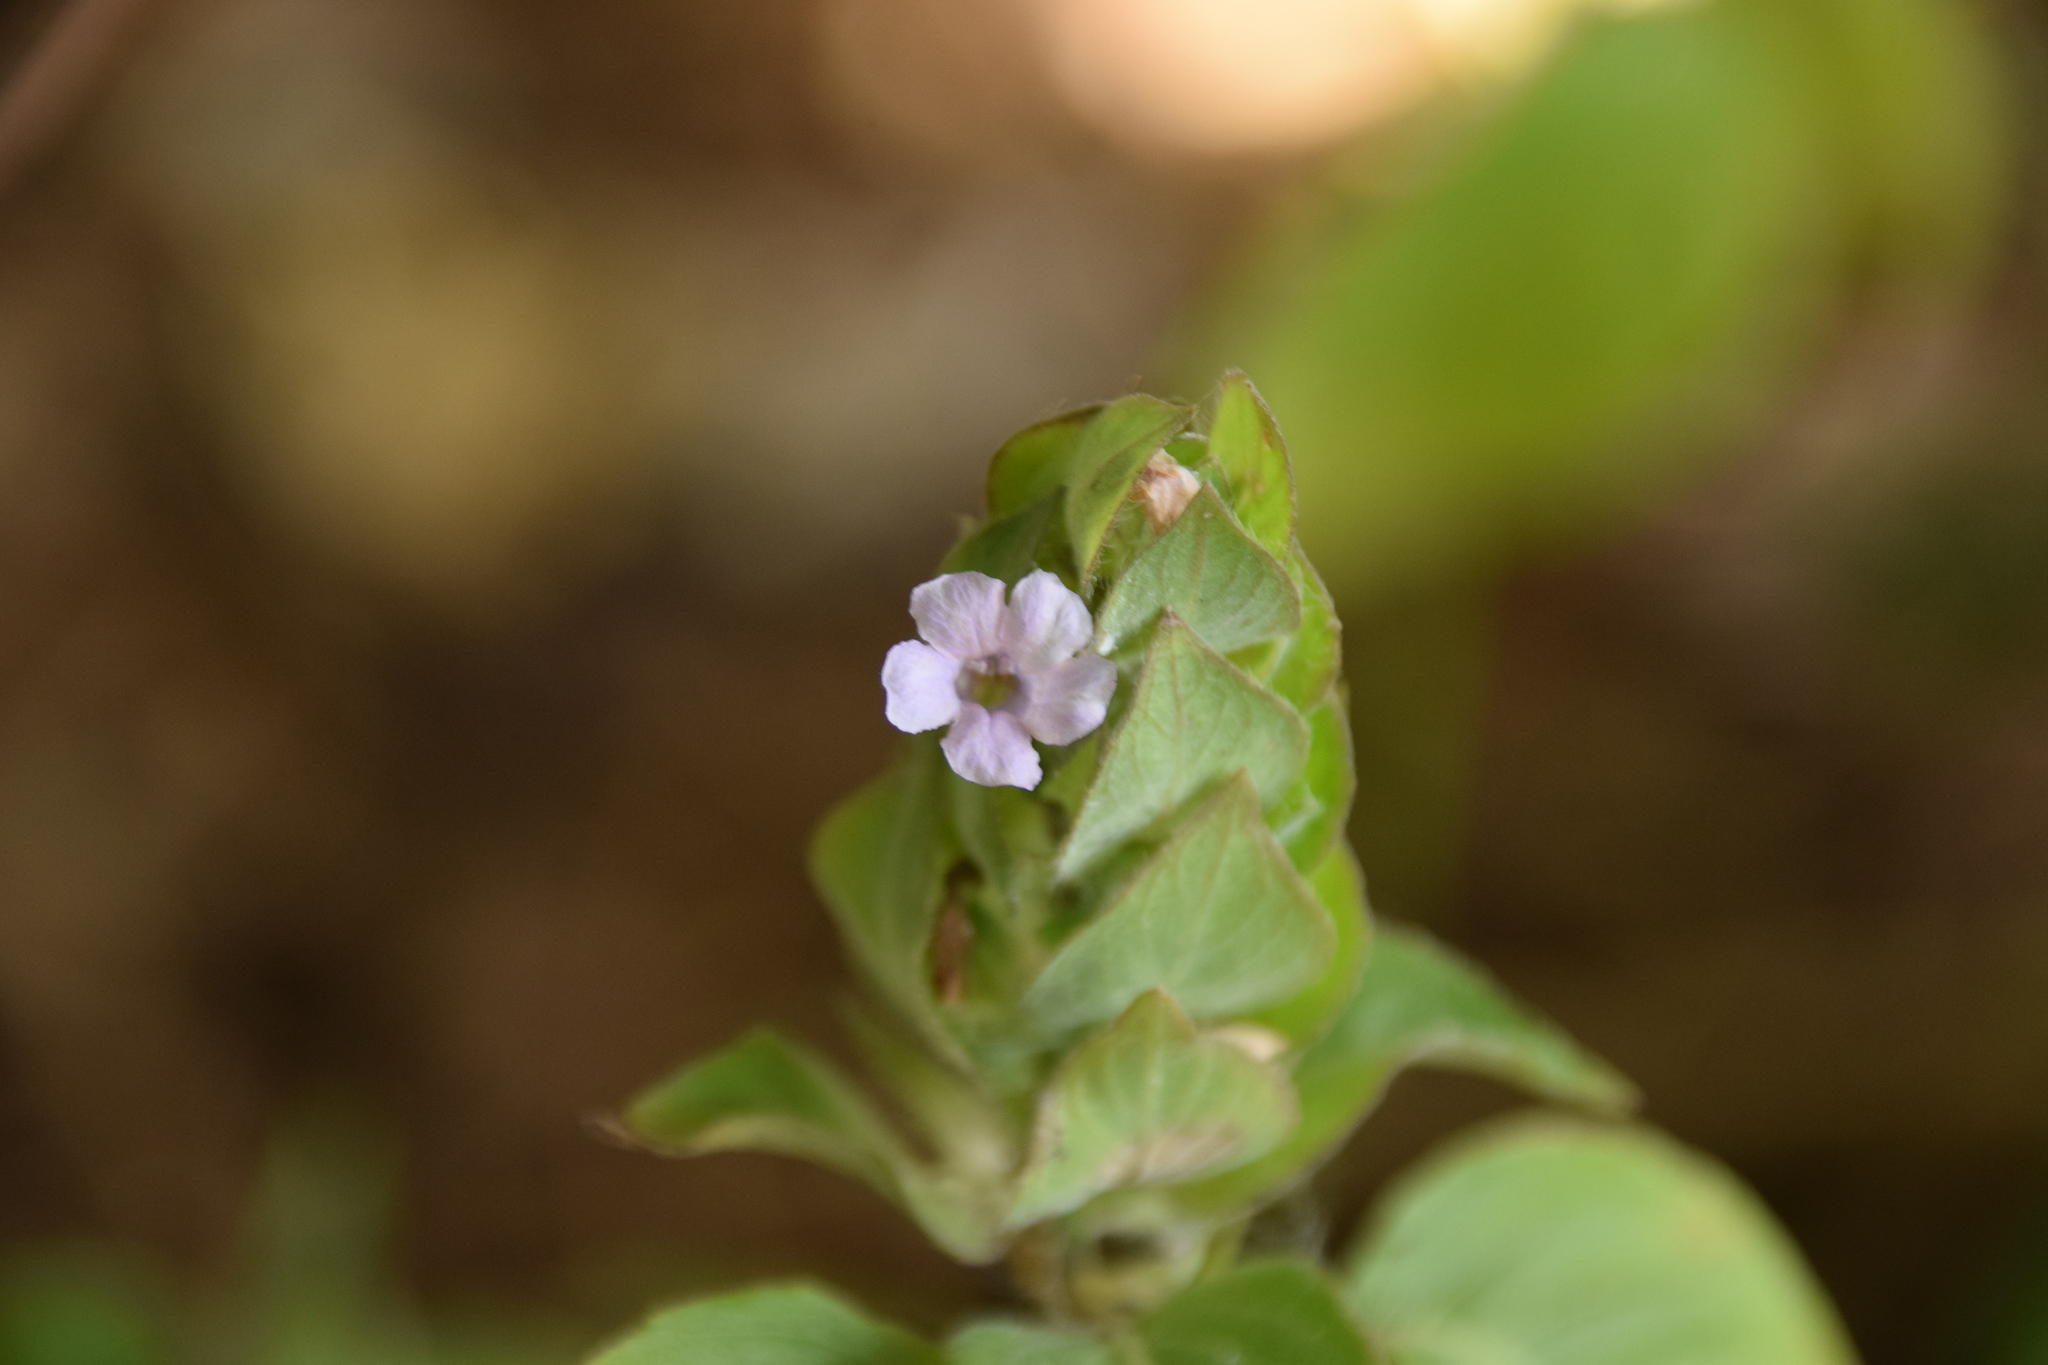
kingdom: Plantae
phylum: Tracheophyta
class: Magnoliopsida
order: Lamiales
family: Acanthaceae
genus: Ruellia
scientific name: Ruellia blechum
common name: Browne's blechum
